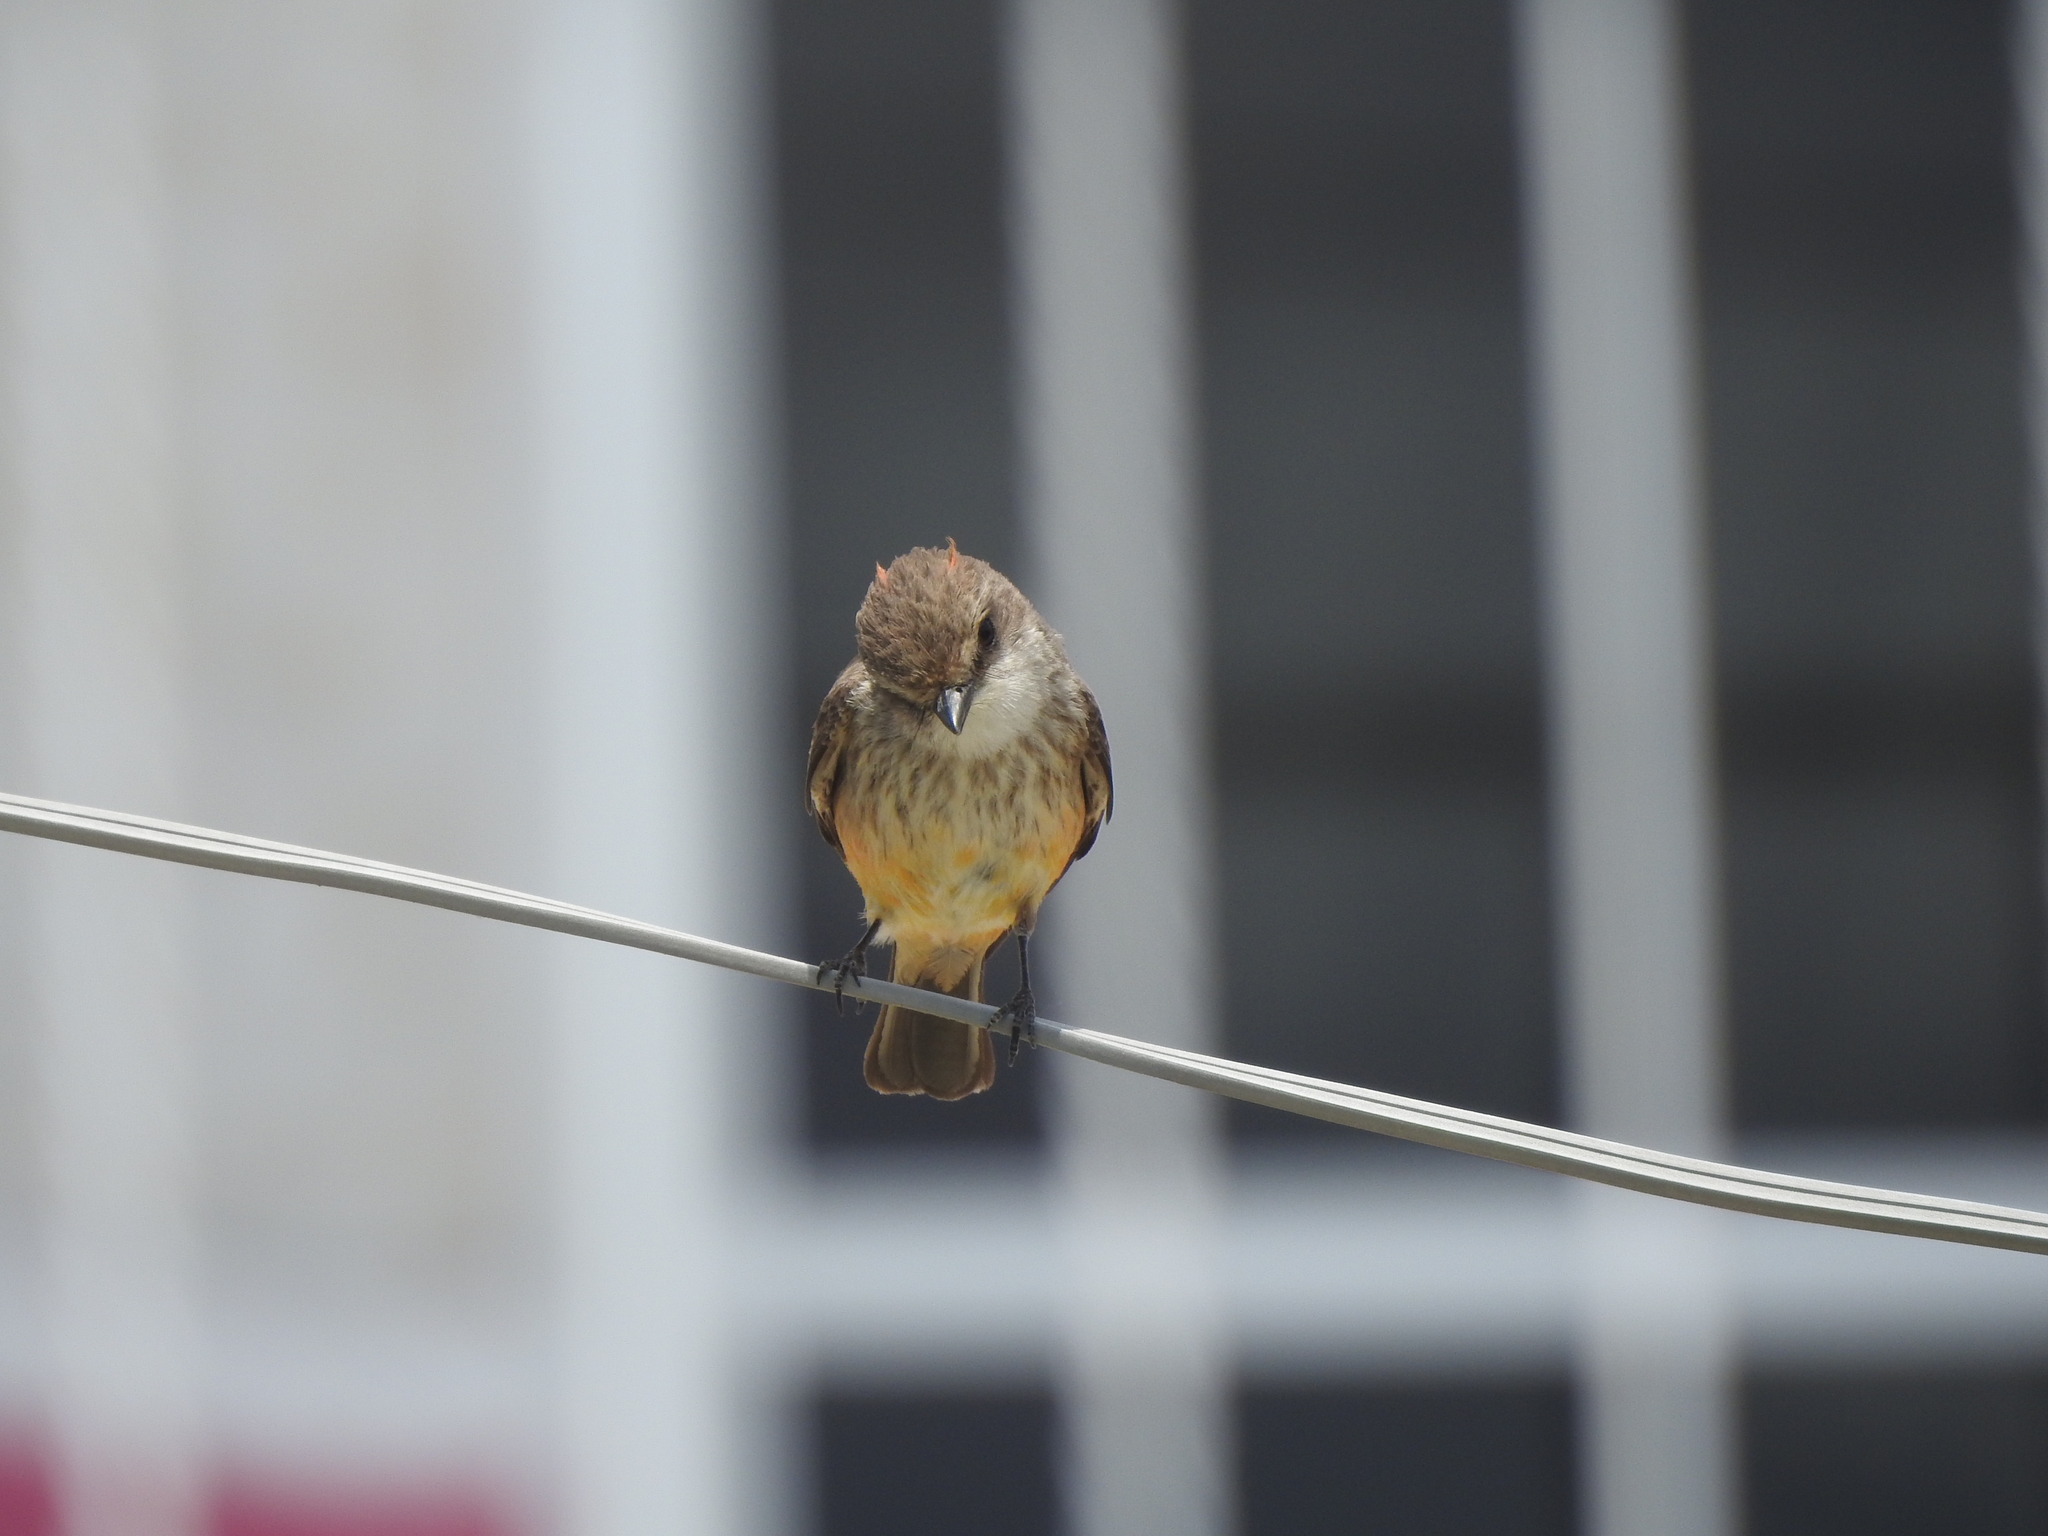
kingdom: Animalia
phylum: Chordata
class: Aves
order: Passeriformes
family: Tyrannidae
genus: Pyrocephalus
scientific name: Pyrocephalus rubinus
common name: Vermilion flycatcher
